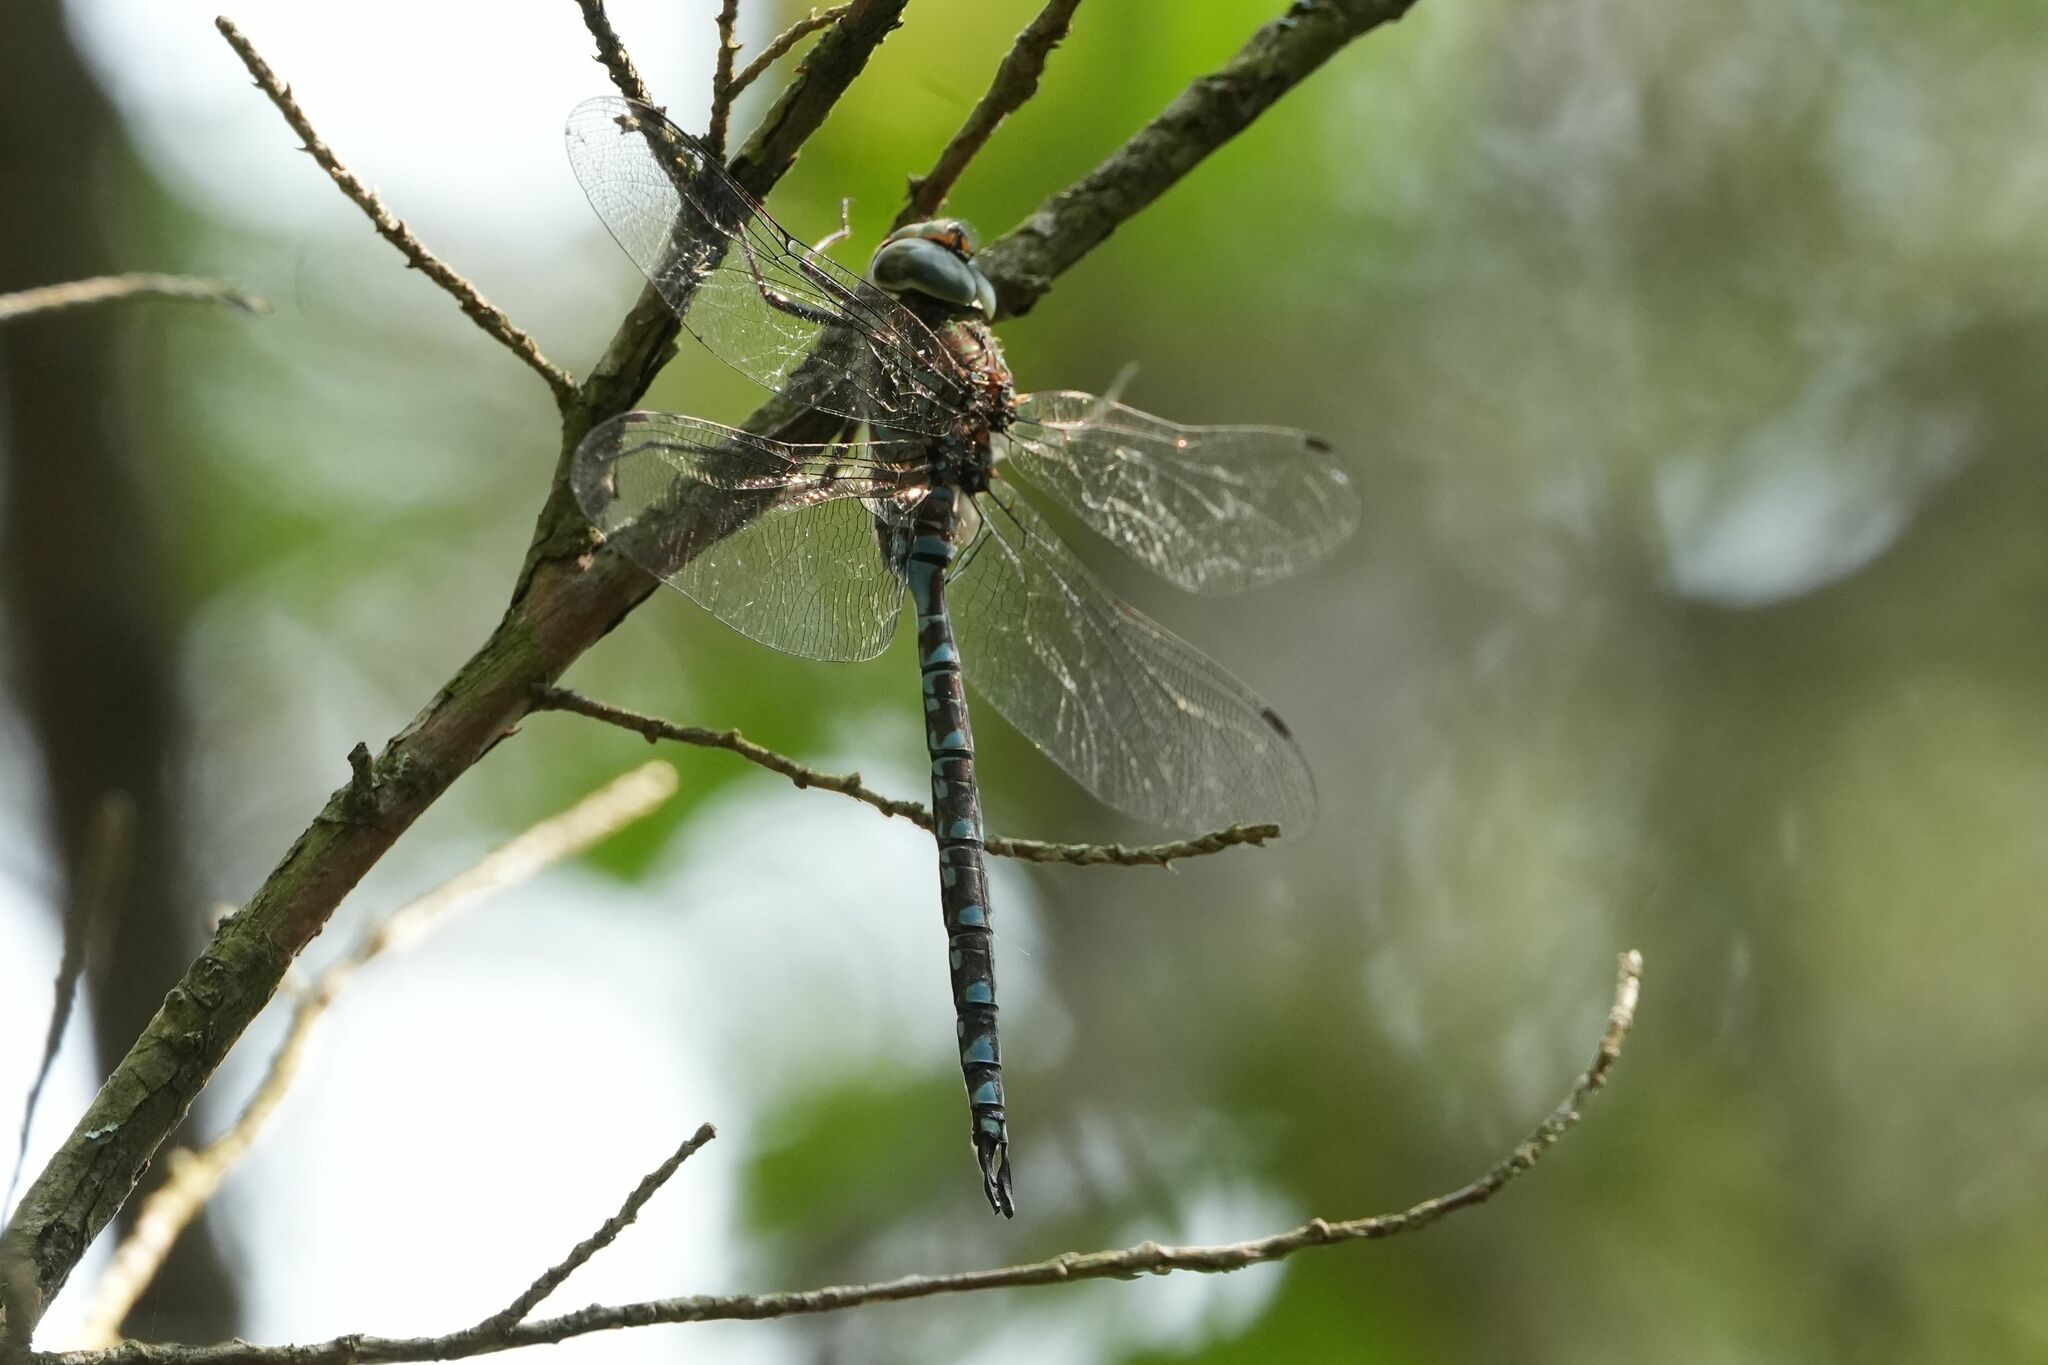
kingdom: Animalia
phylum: Arthropoda
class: Insecta
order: Odonata
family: Aeshnidae
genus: Aeshna
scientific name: Aeshna canadensis
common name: Canada darner
